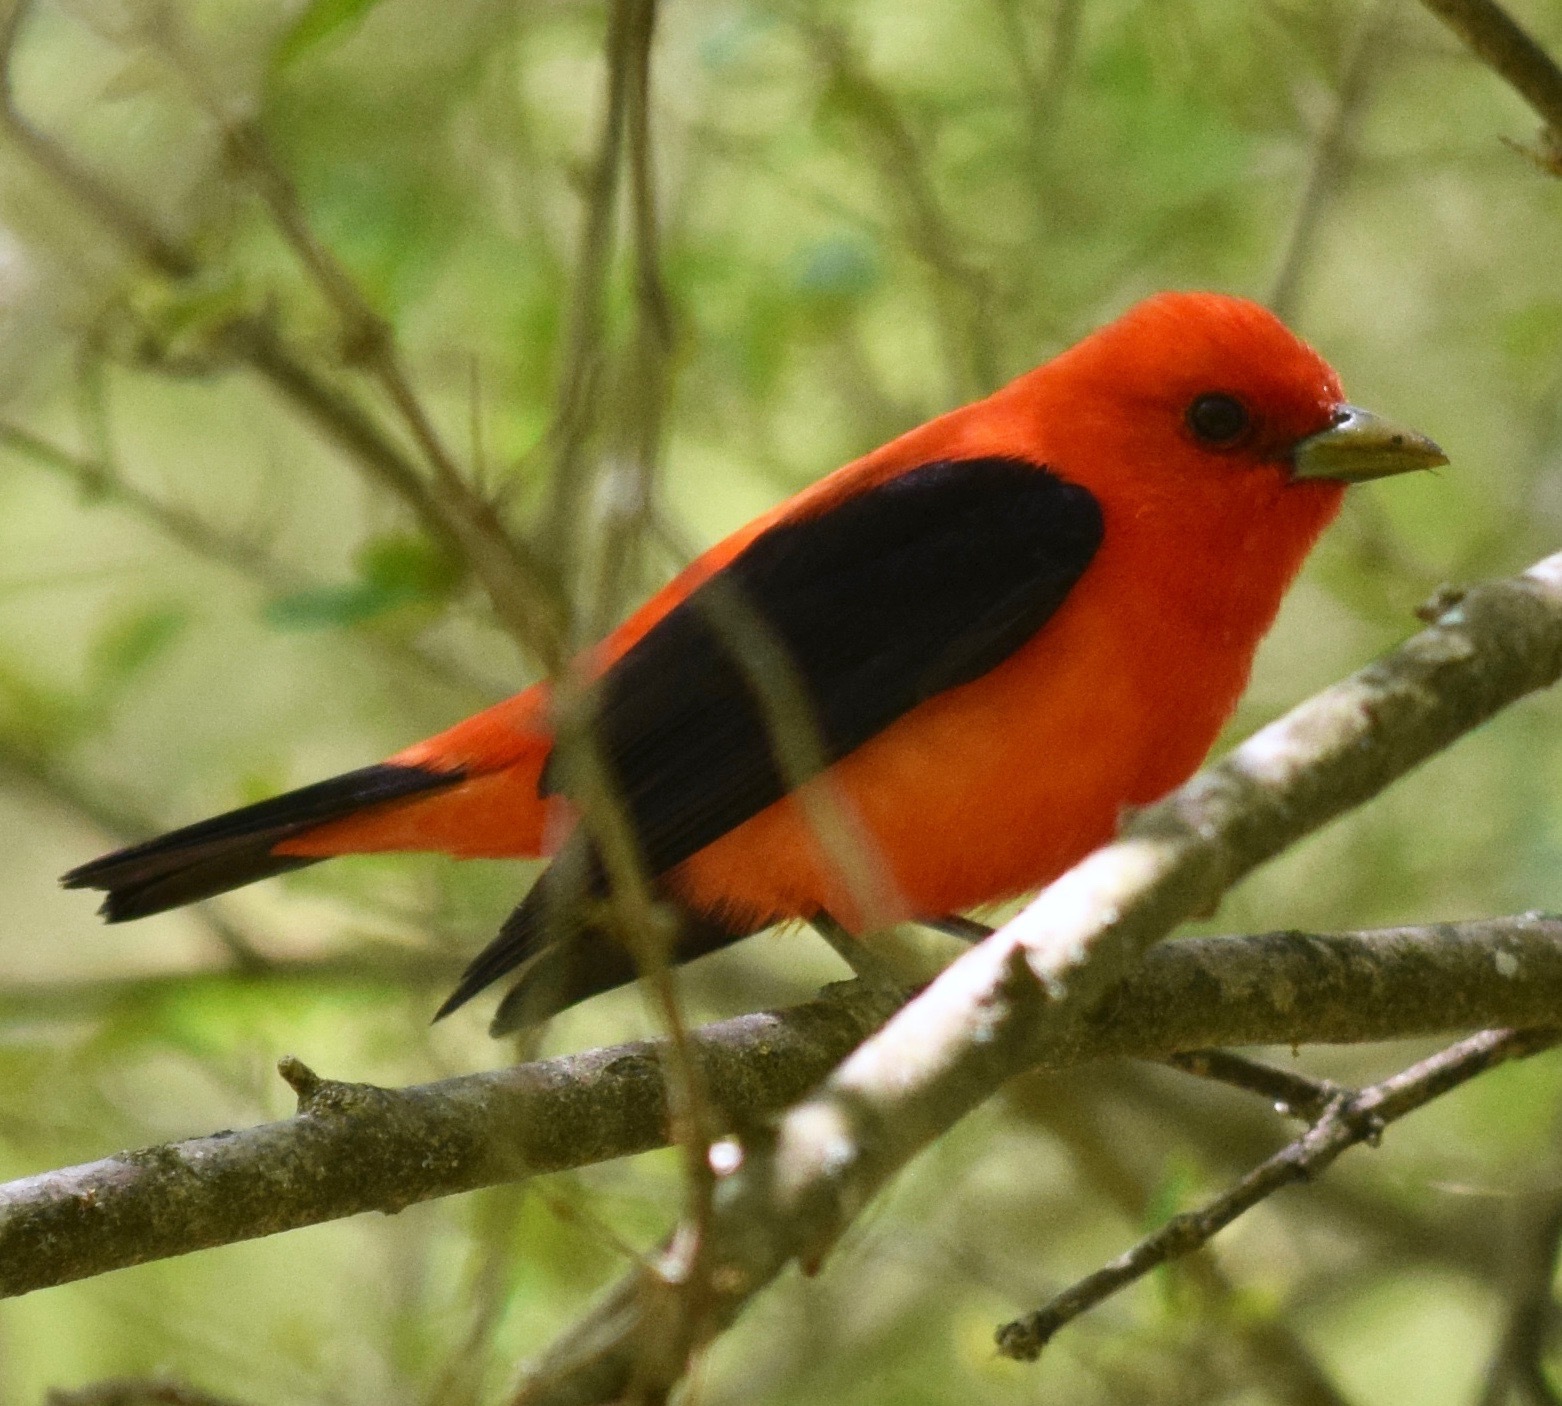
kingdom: Animalia
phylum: Chordata
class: Aves
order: Passeriformes
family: Cardinalidae
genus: Piranga
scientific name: Piranga olivacea
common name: Scarlet tanager
